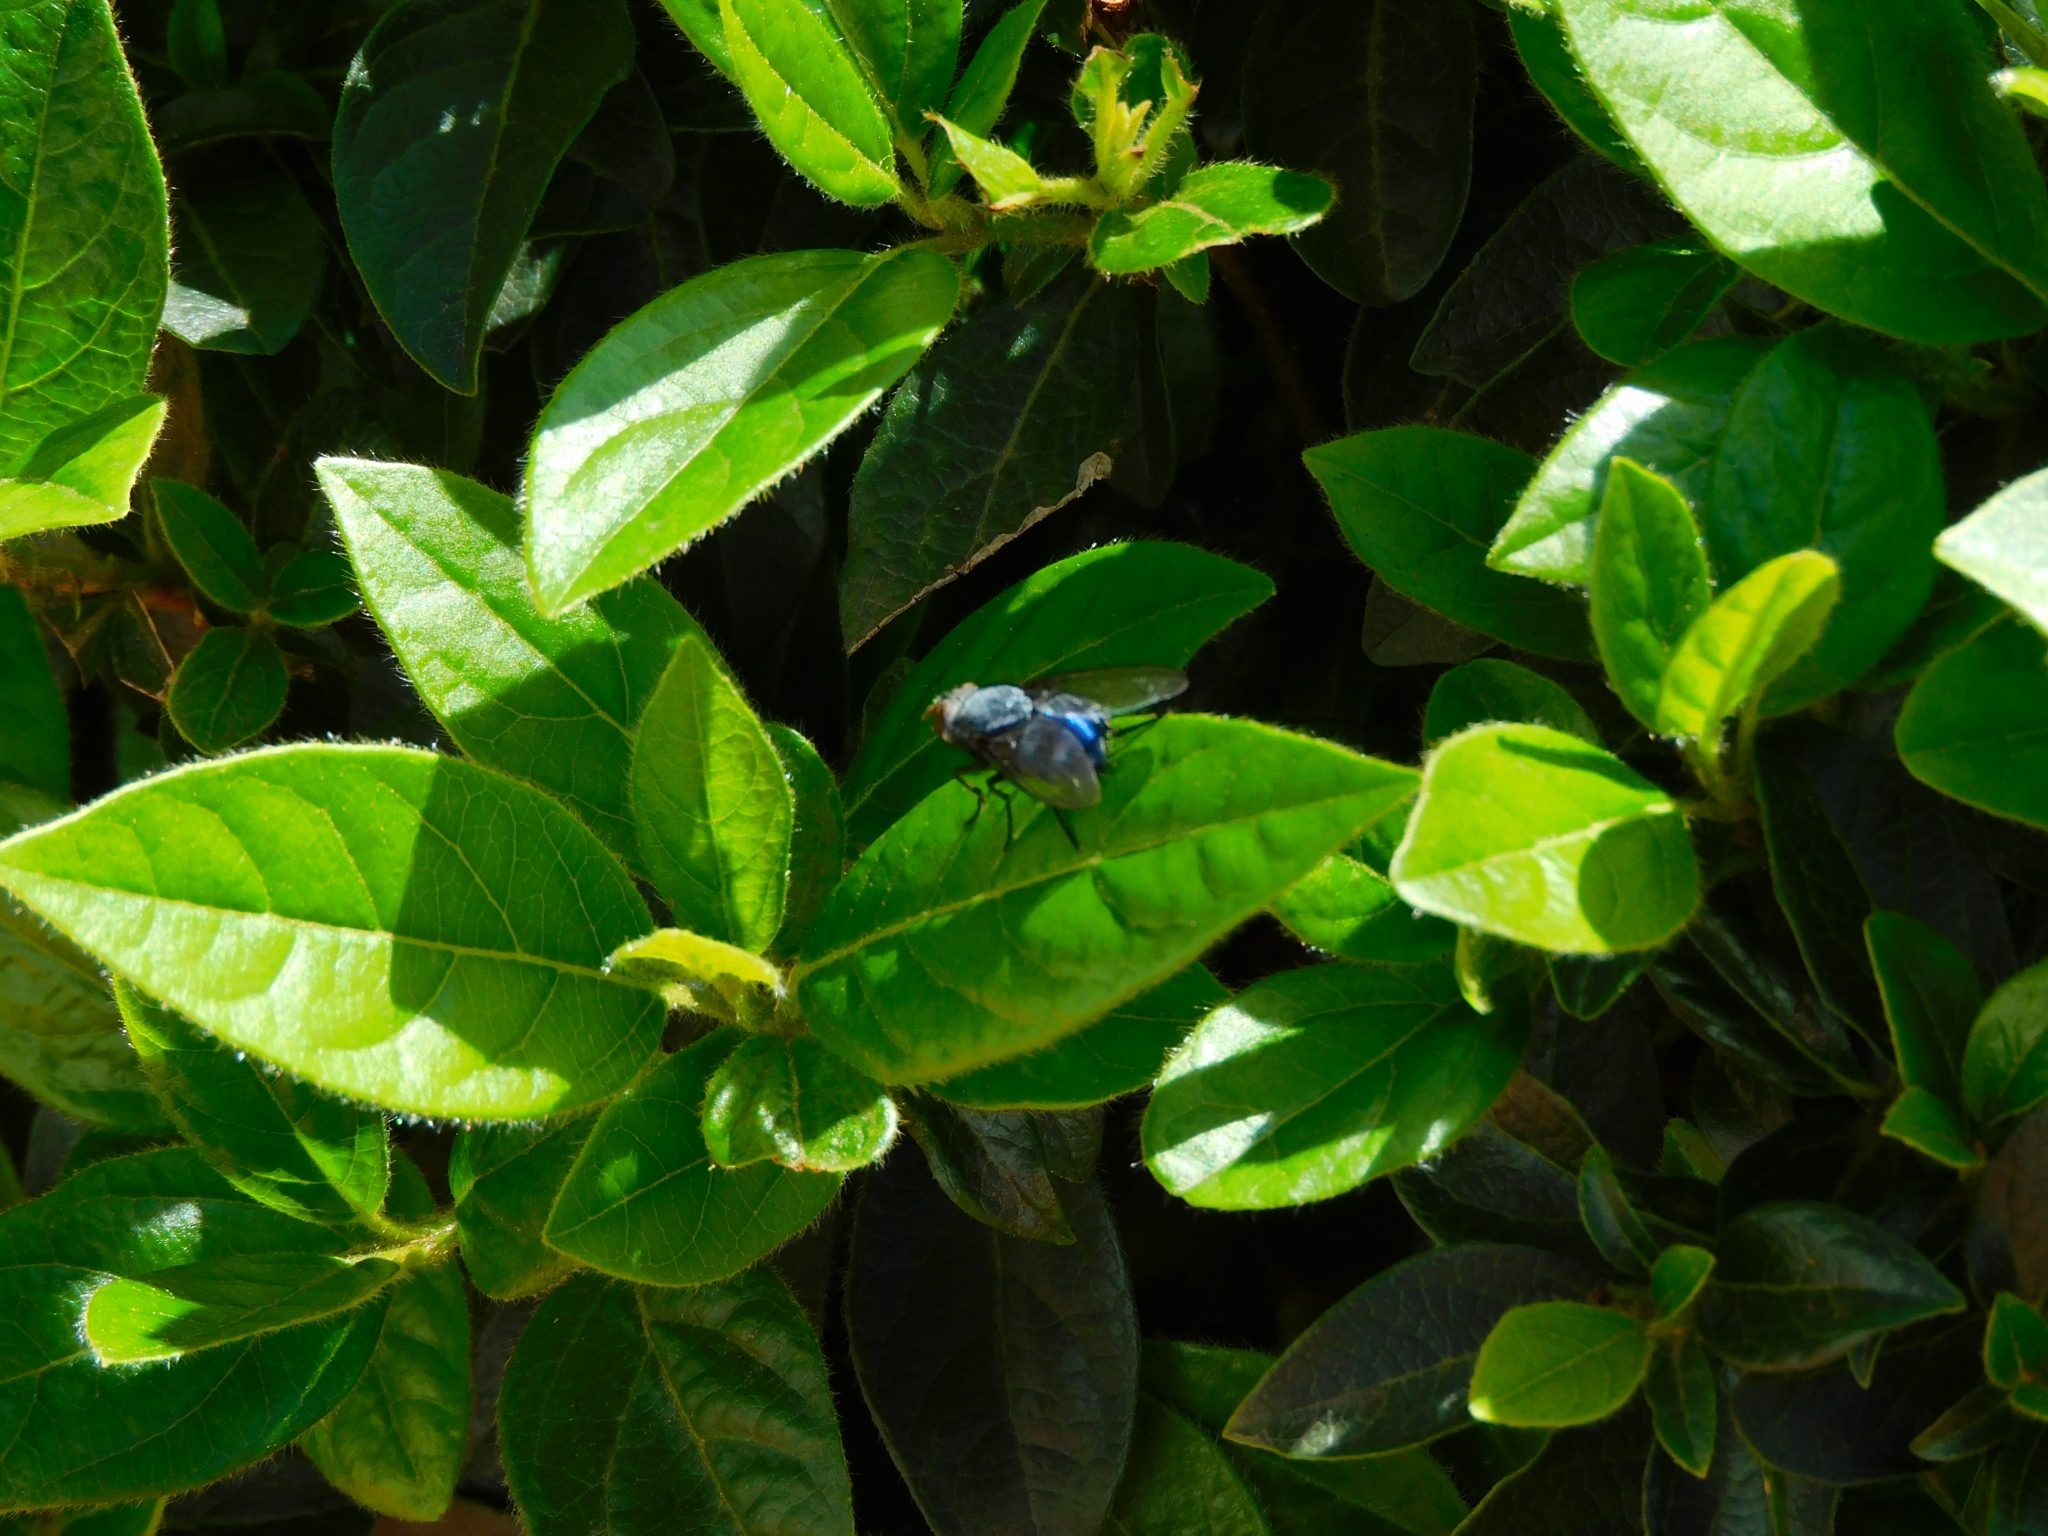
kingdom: Animalia
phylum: Arthropoda
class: Insecta
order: Diptera
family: Calliphoridae
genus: Calliphora
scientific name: Calliphora vicina
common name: Common blow flie
